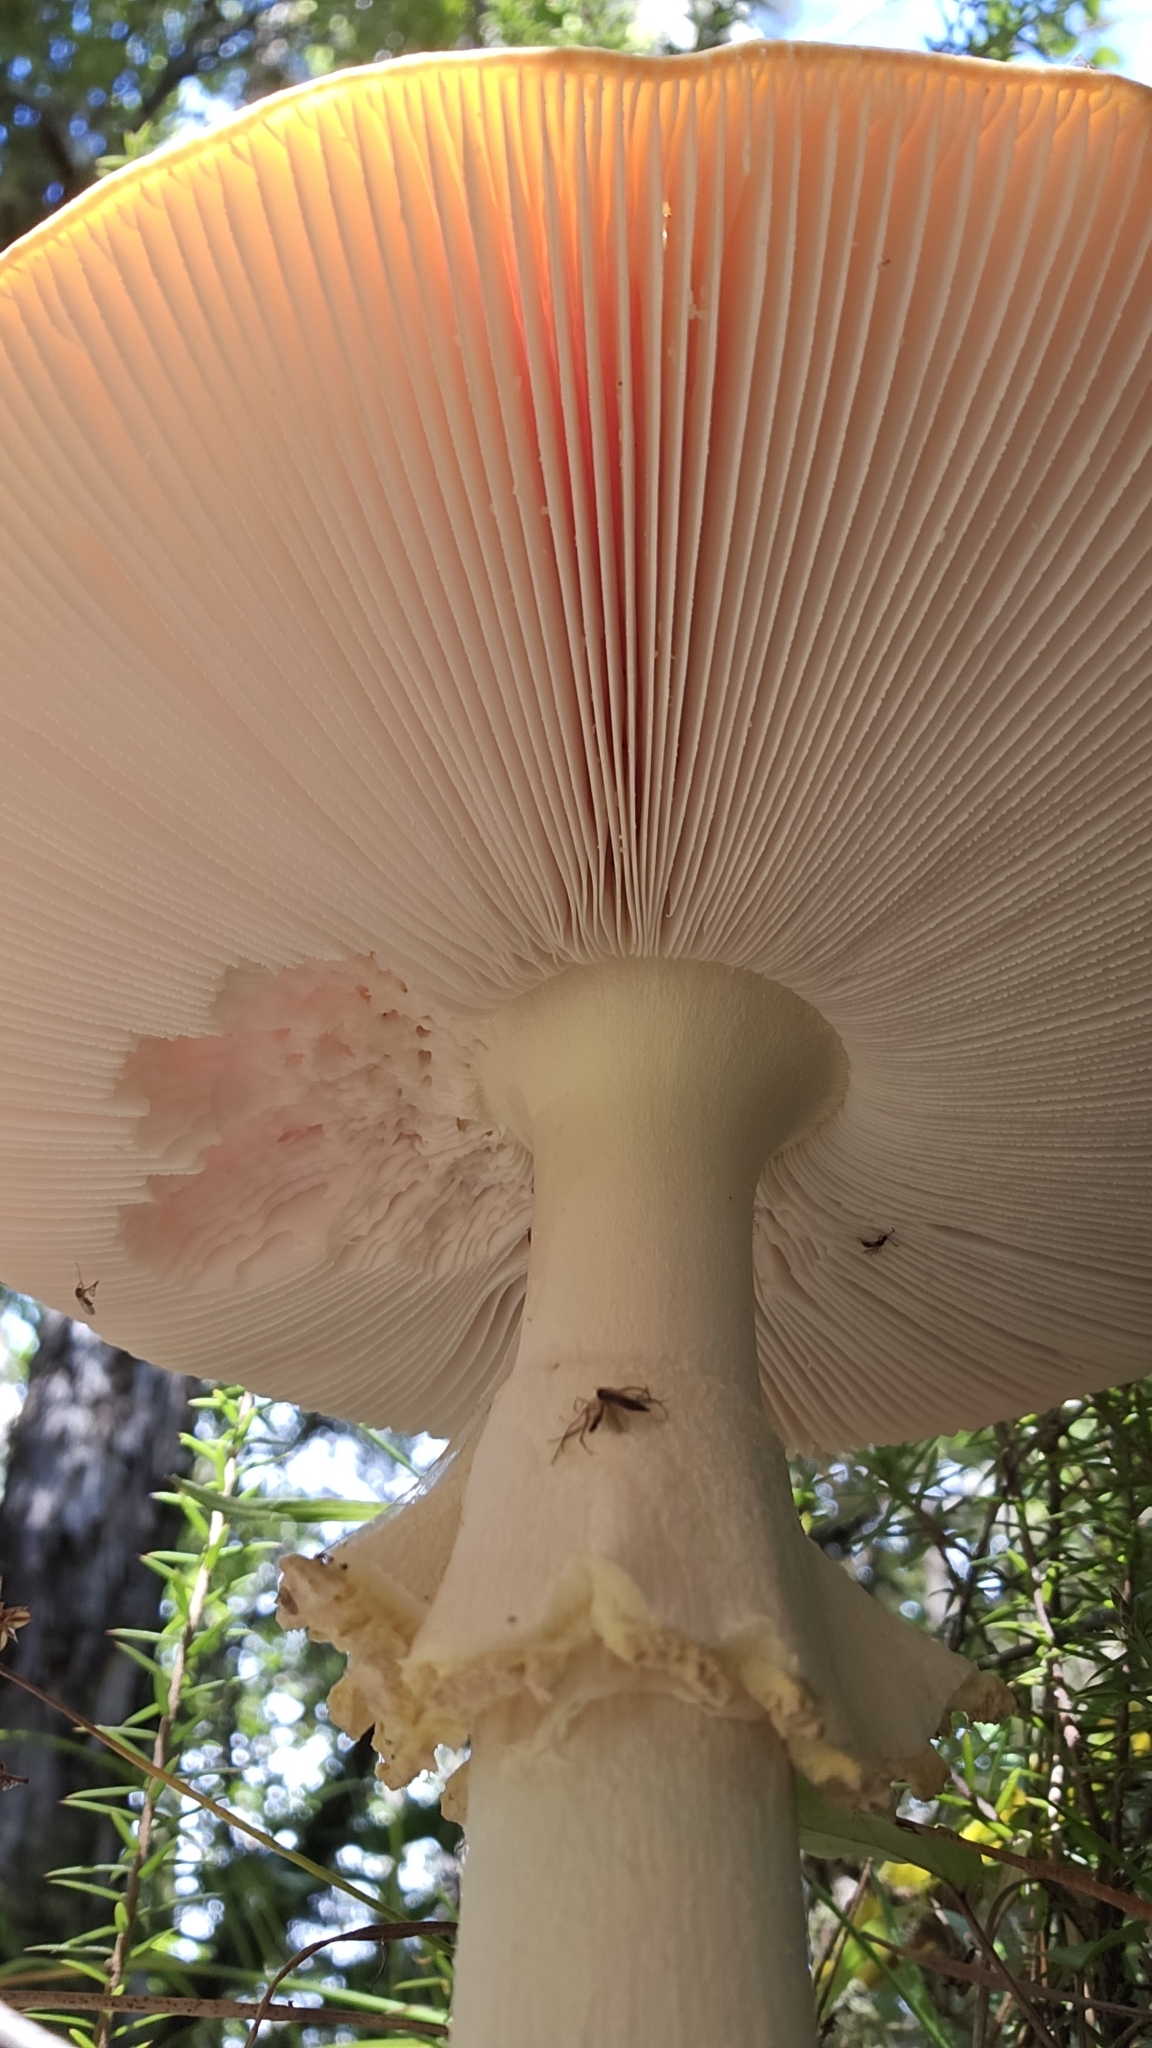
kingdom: Fungi
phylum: Basidiomycota
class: Agaricomycetes
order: Agaricales
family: Amanitaceae
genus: Amanita
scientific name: Amanita muscaria
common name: Fly agaric
